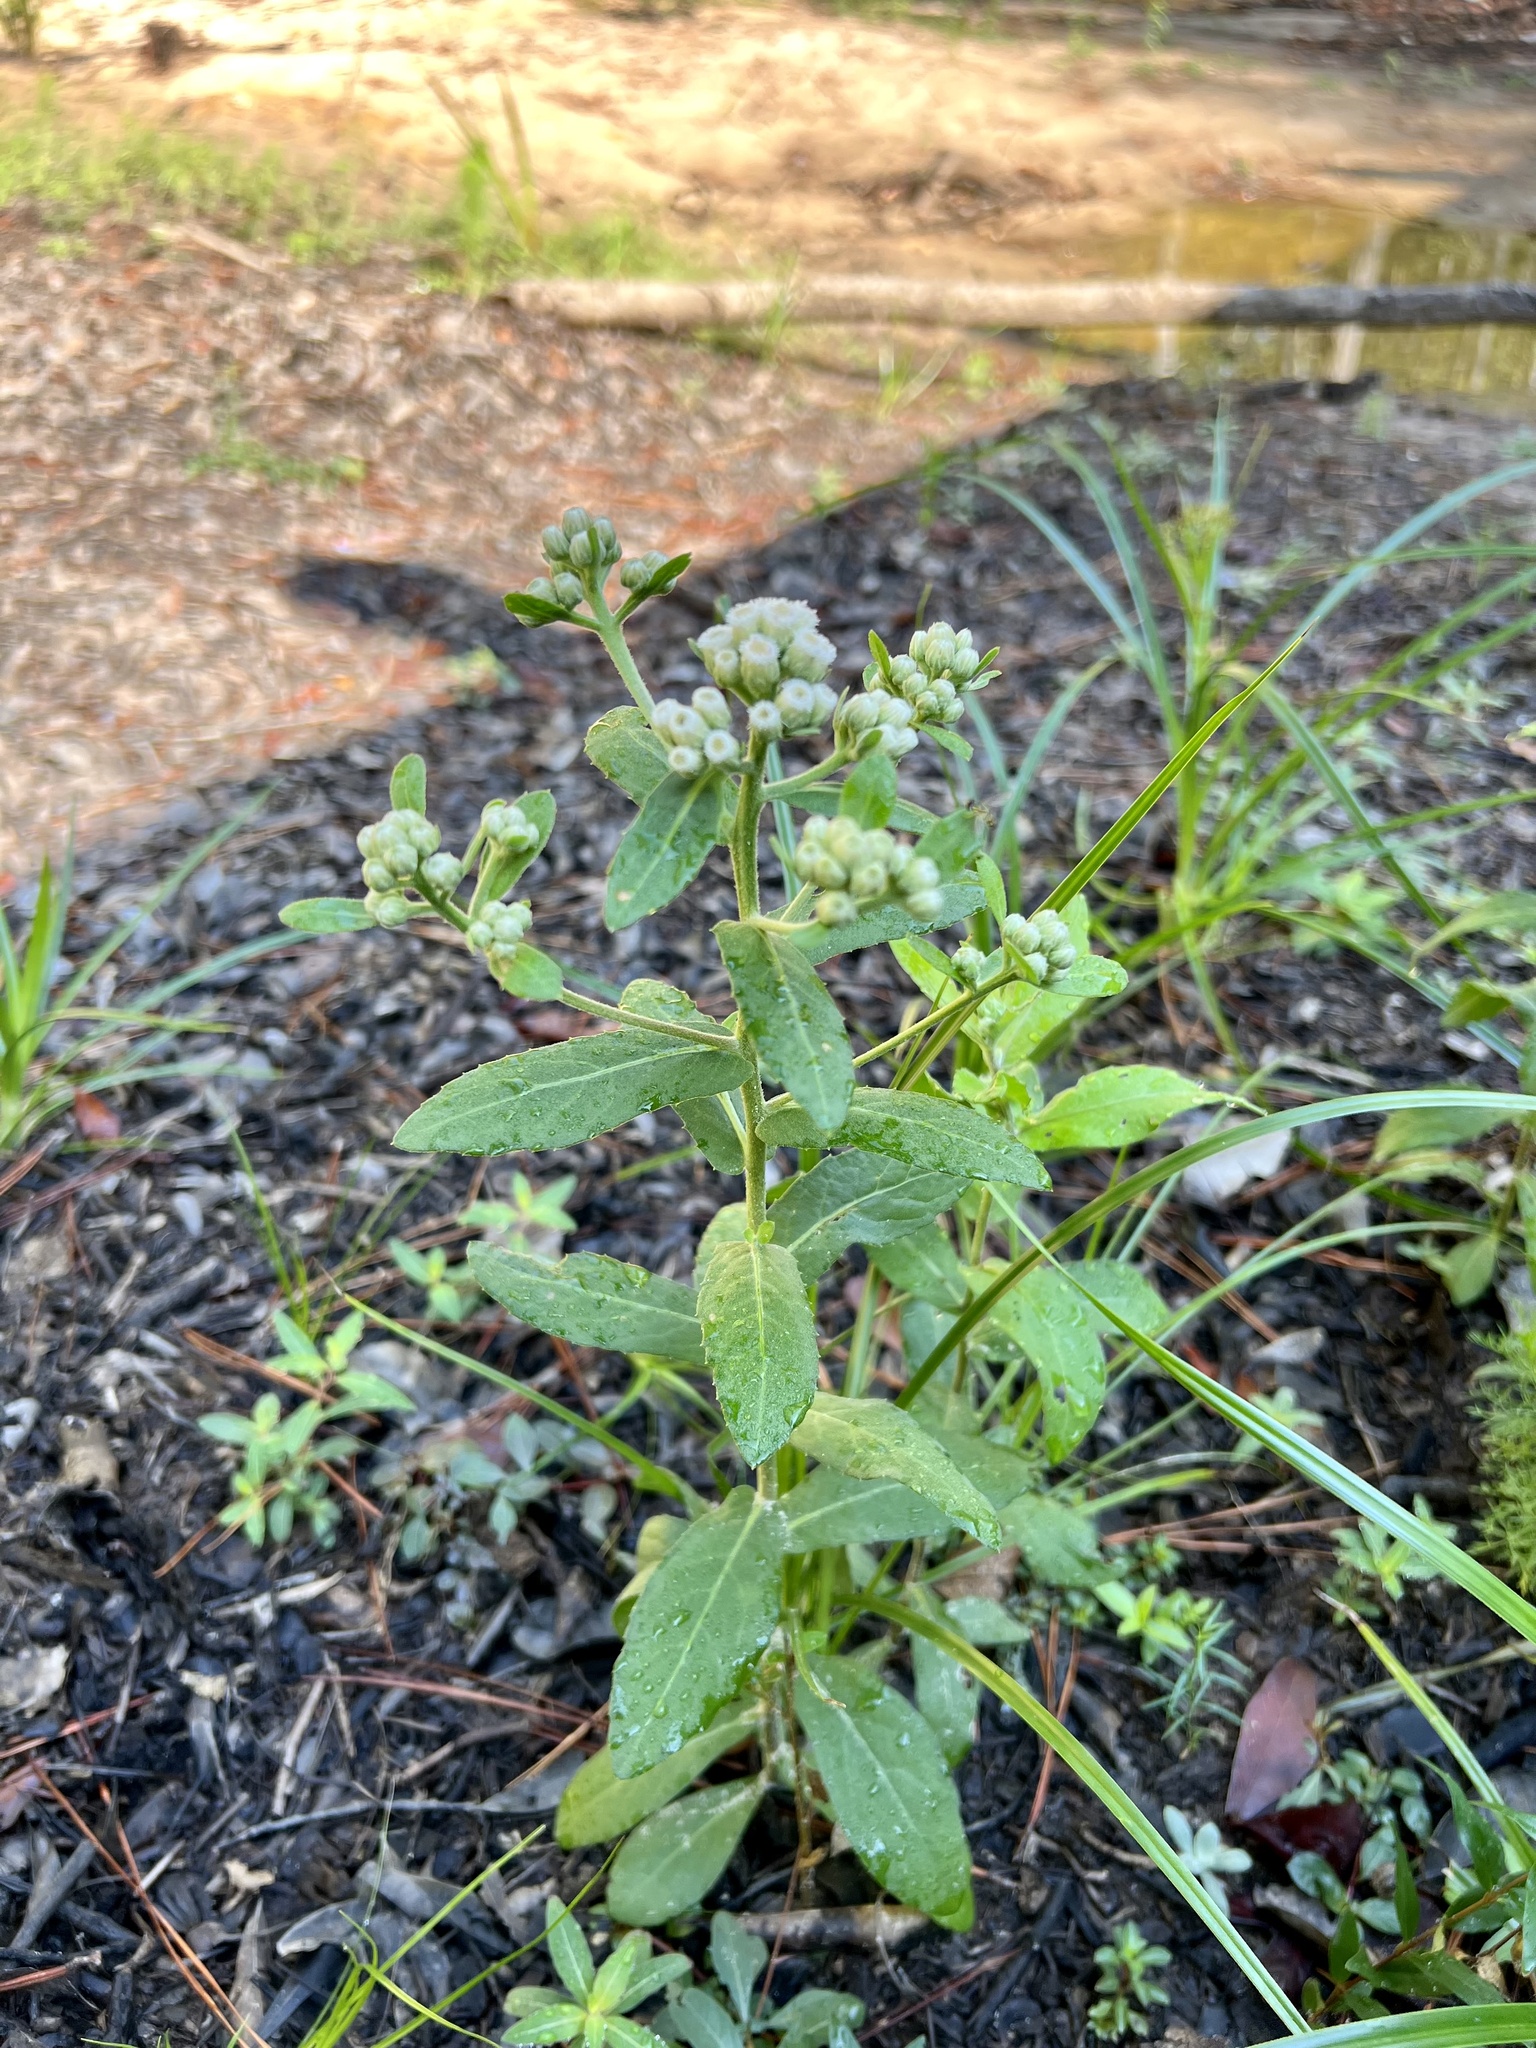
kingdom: Plantae
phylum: Tracheophyta
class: Magnoliopsida
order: Asterales
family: Asteraceae
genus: Pluchea
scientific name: Pluchea foetida
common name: Stinking camphorweed
